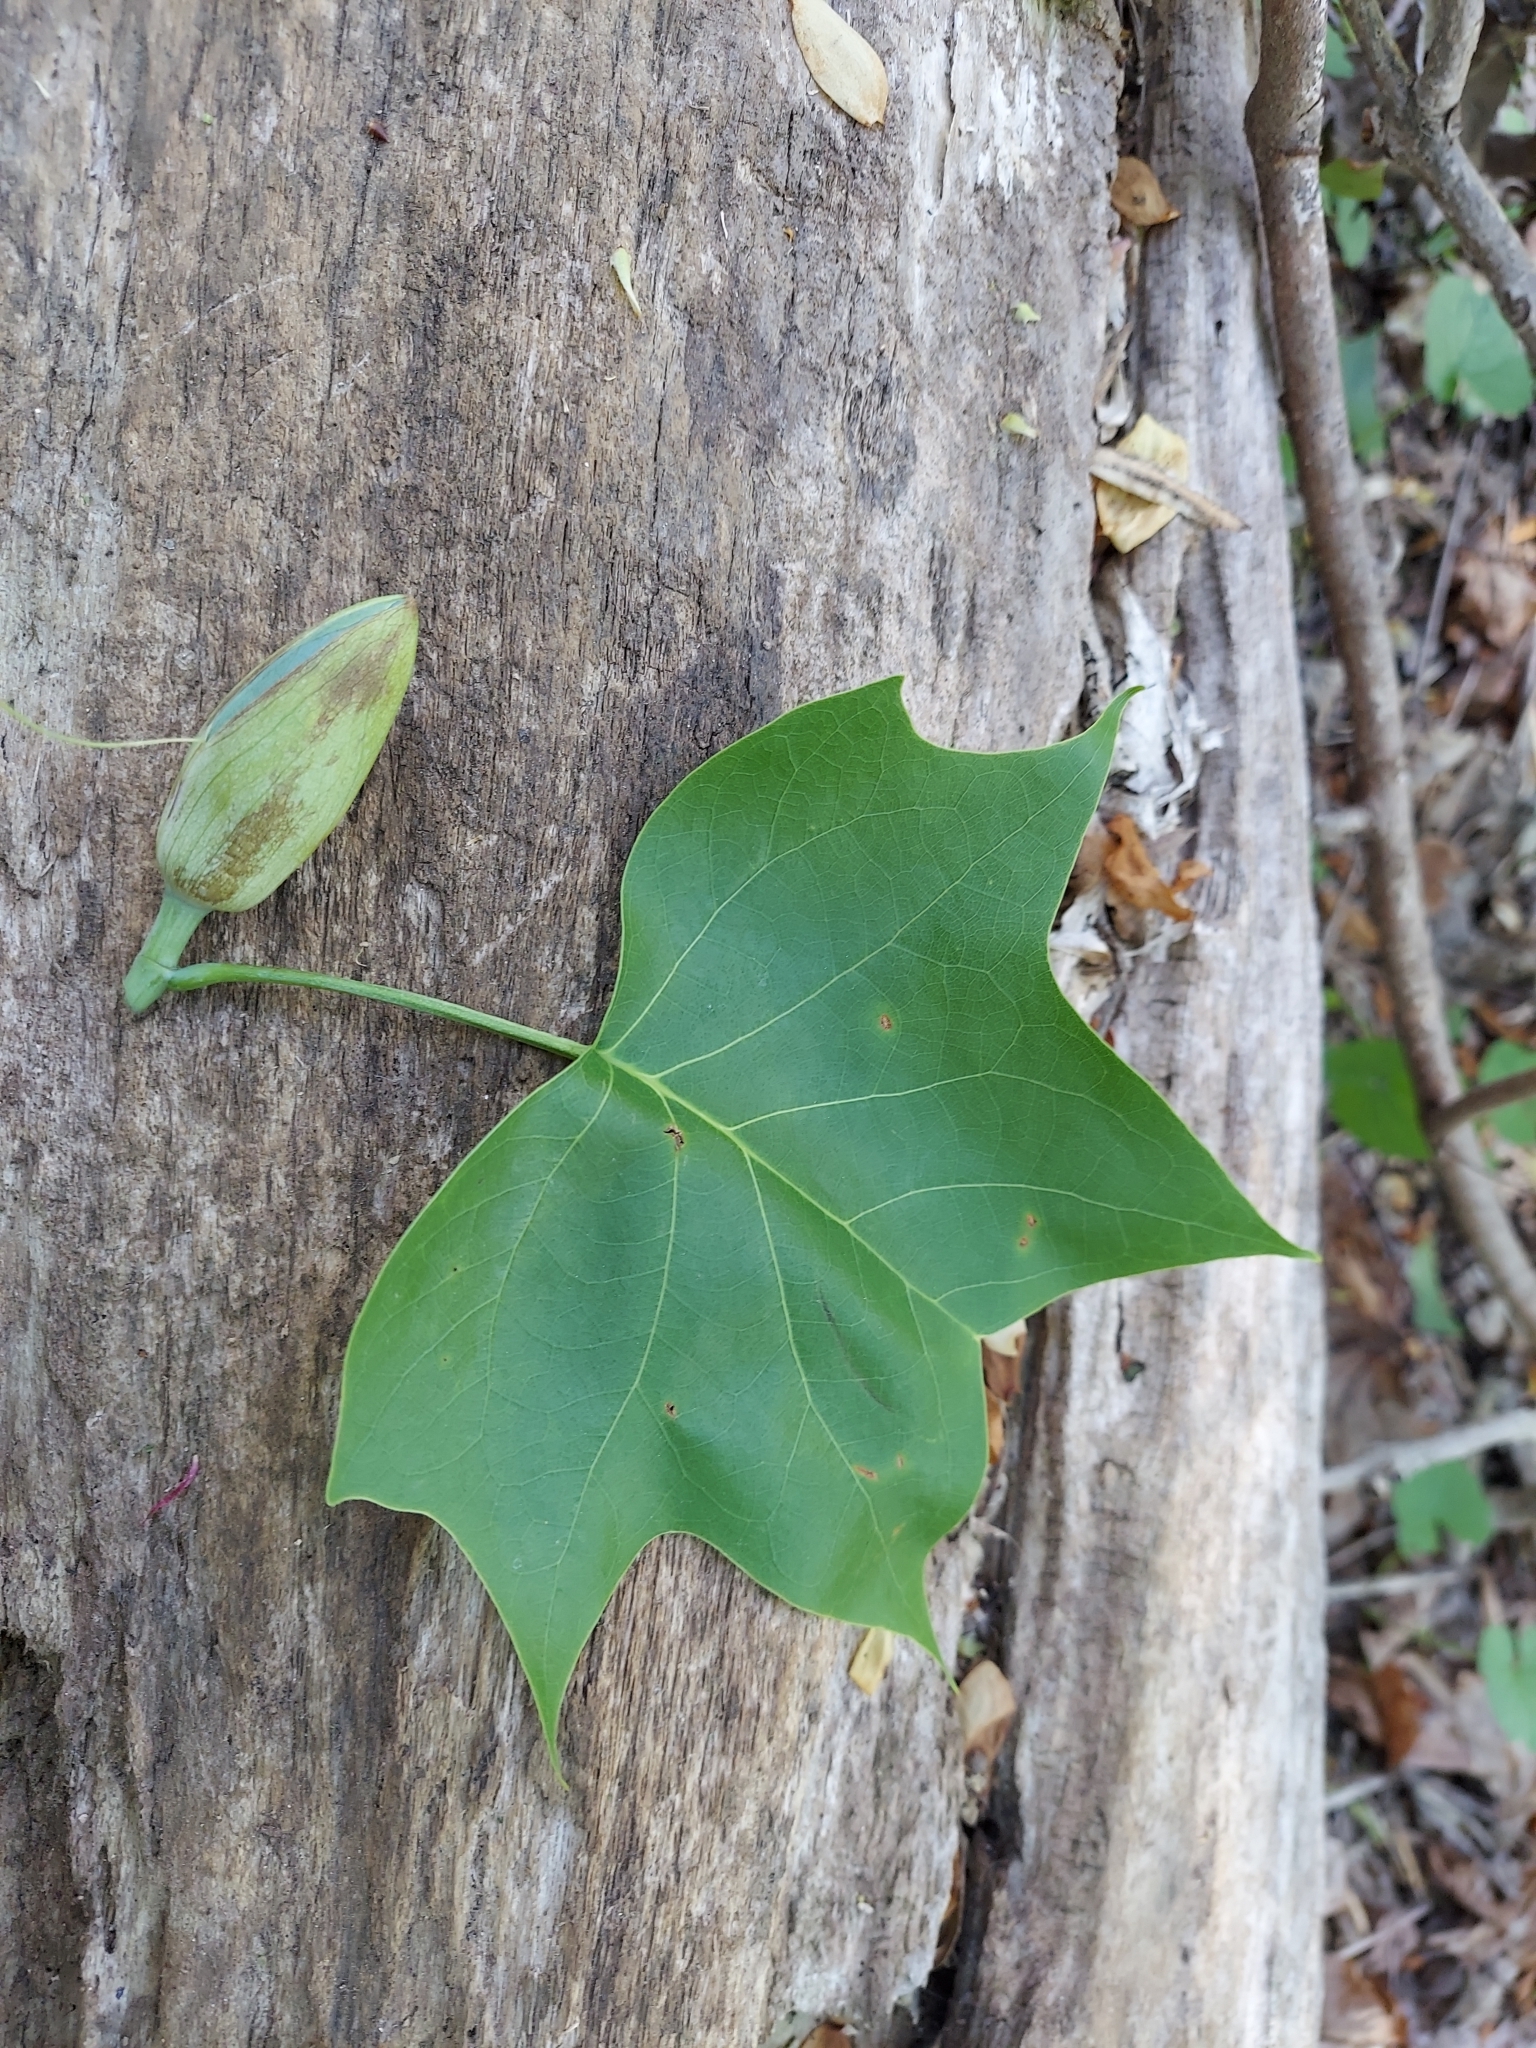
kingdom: Plantae
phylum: Tracheophyta
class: Magnoliopsida
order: Magnoliales
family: Magnoliaceae
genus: Liriodendron
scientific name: Liriodendron tulipifera
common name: Tulip tree
